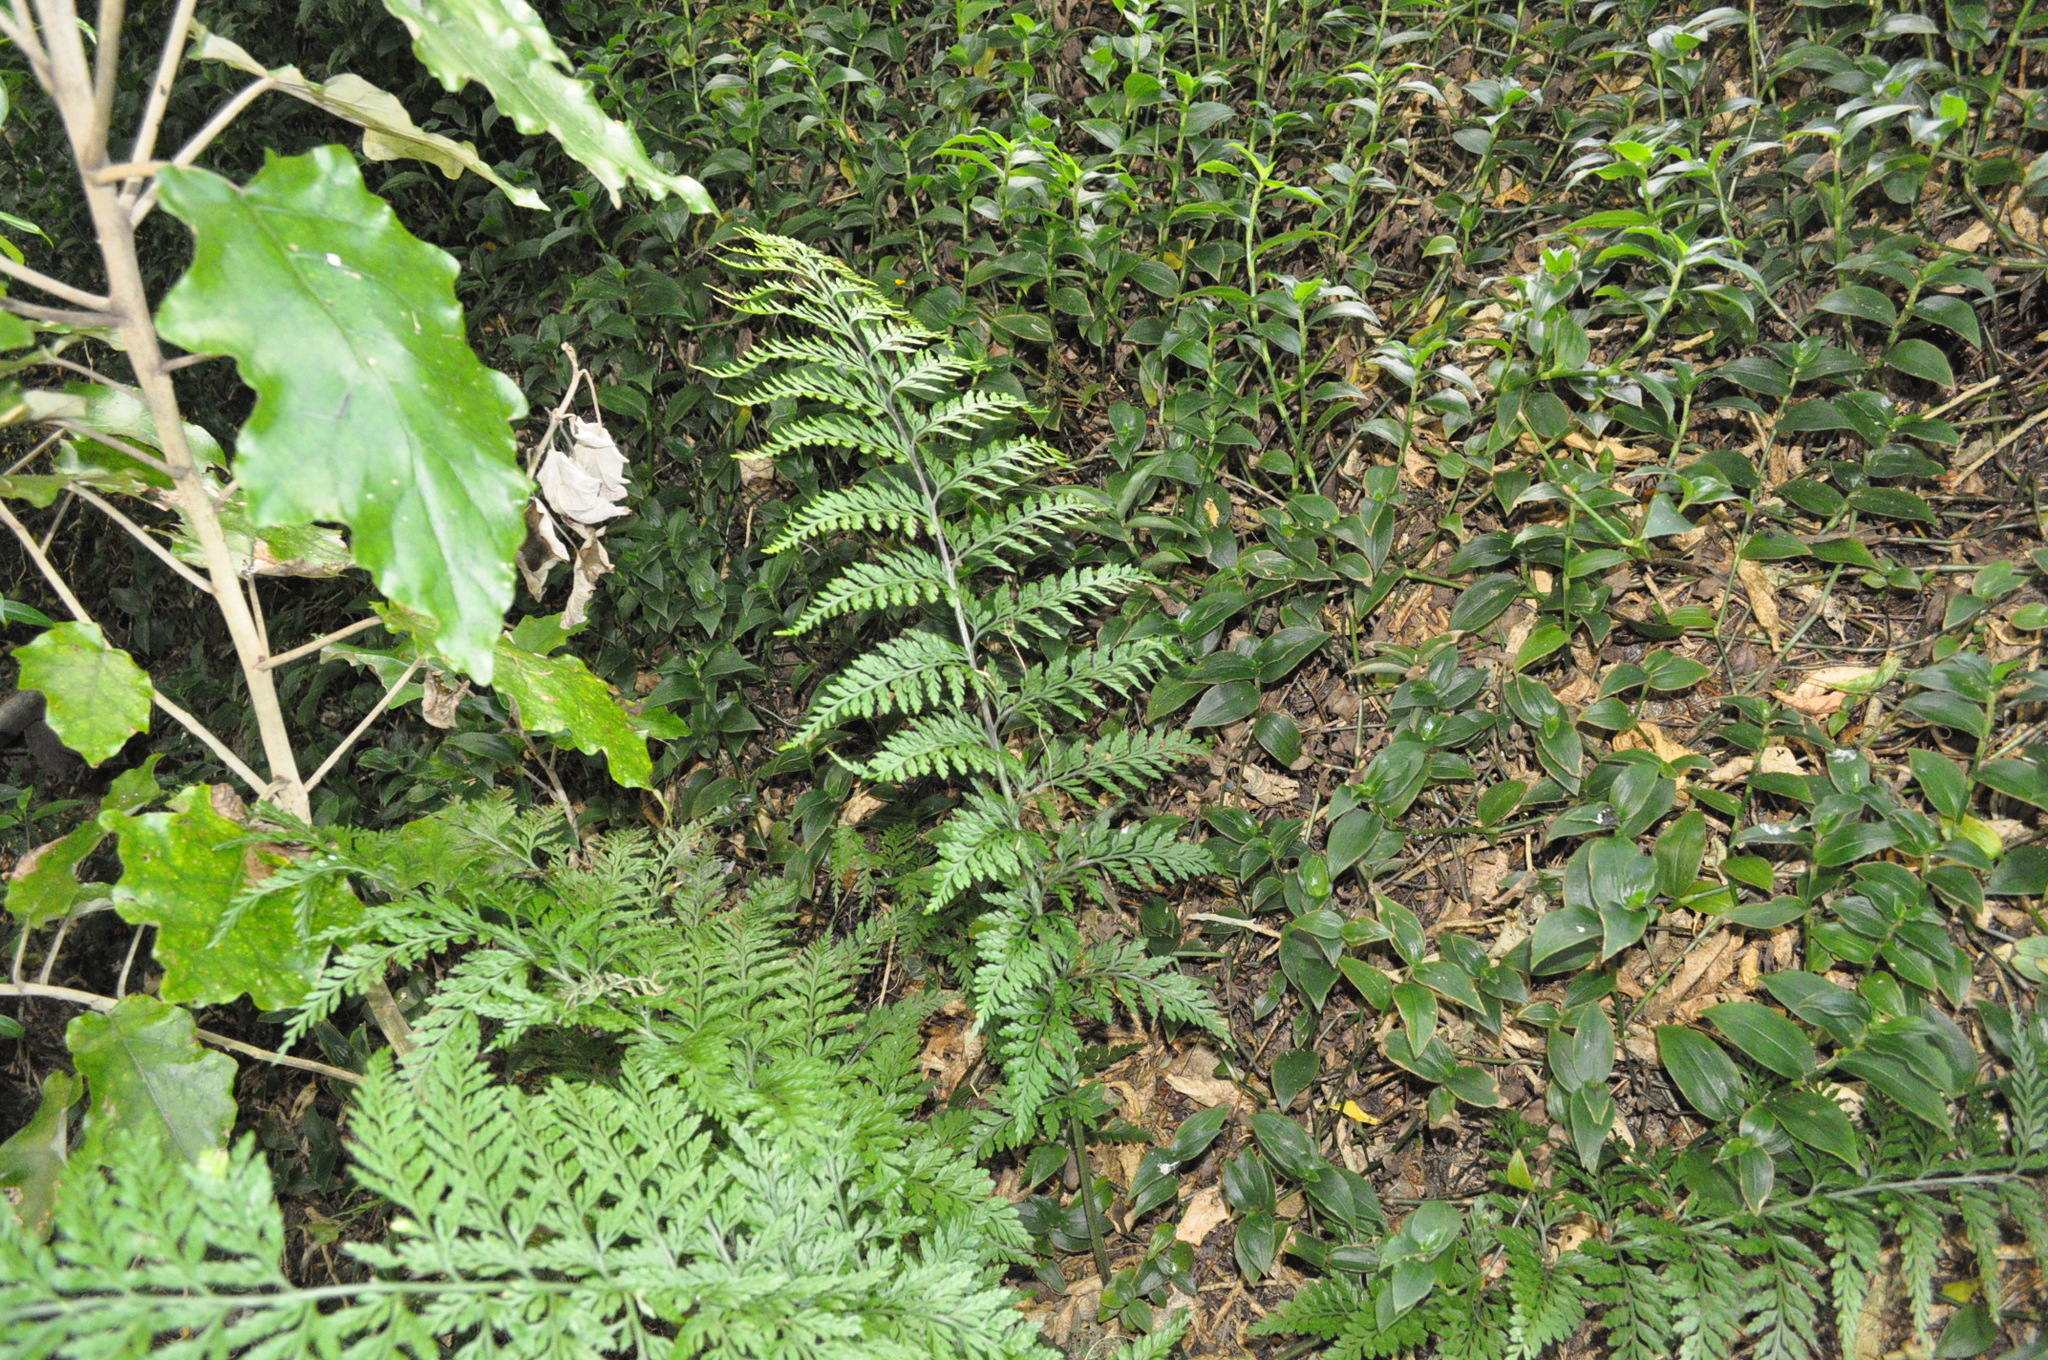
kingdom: Plantae
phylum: Tracheophyta
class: Polypodiopsida
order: Polypodiales
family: Aspleniaceae
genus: Asplenium
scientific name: Asplenium
